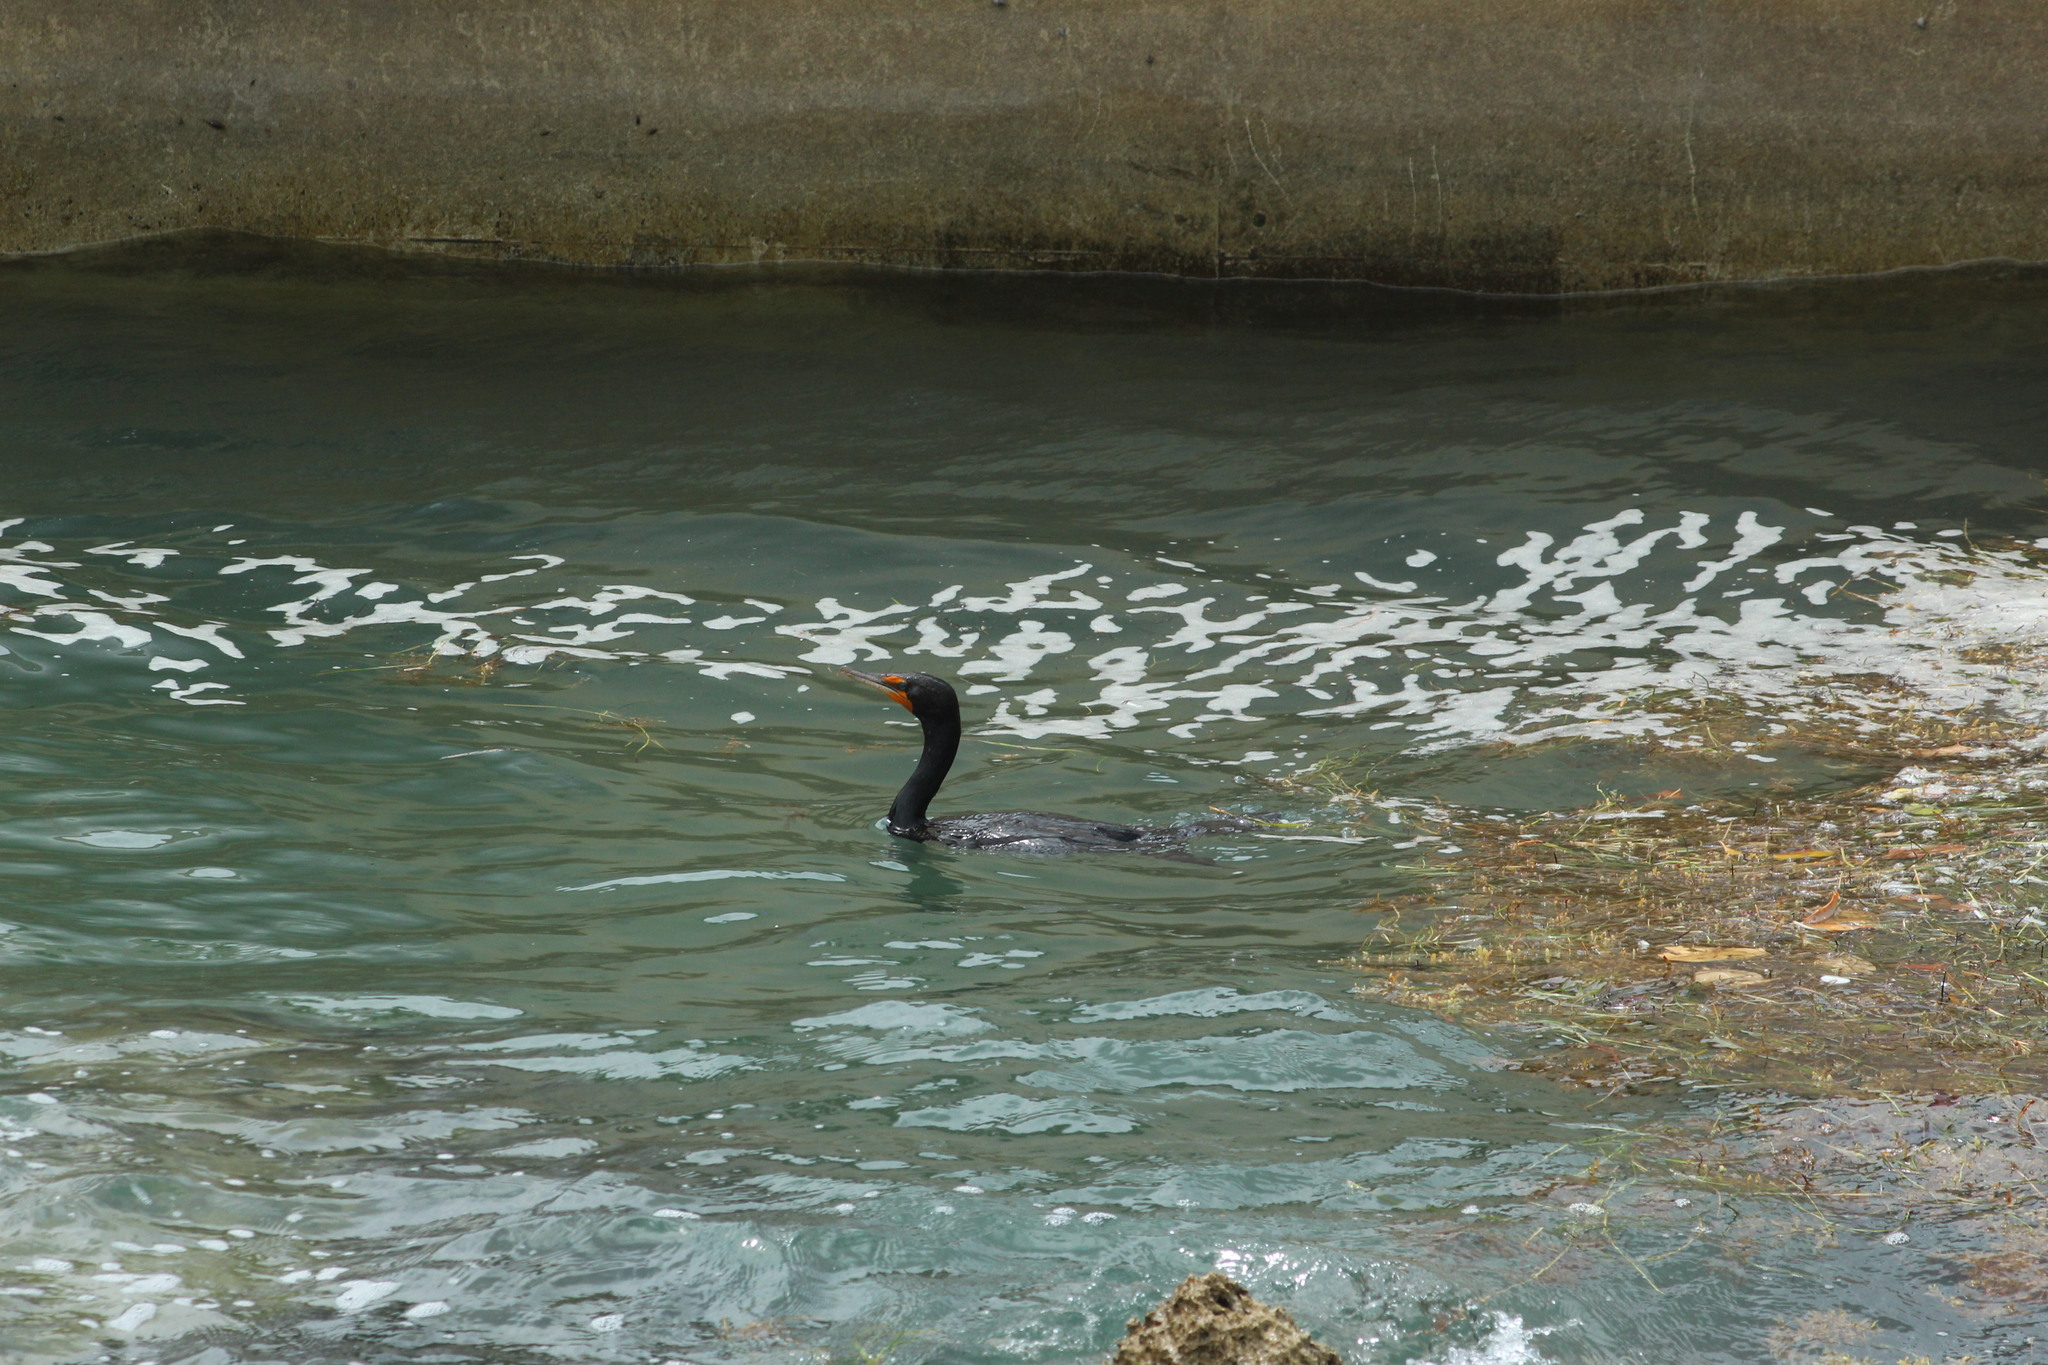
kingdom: Animalia
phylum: Chordata
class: Aves
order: Suliformes
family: Phalacrocoracidae
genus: Phalacrocorax
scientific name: Phalacrocorax auritus
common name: Double-crested cormorant
